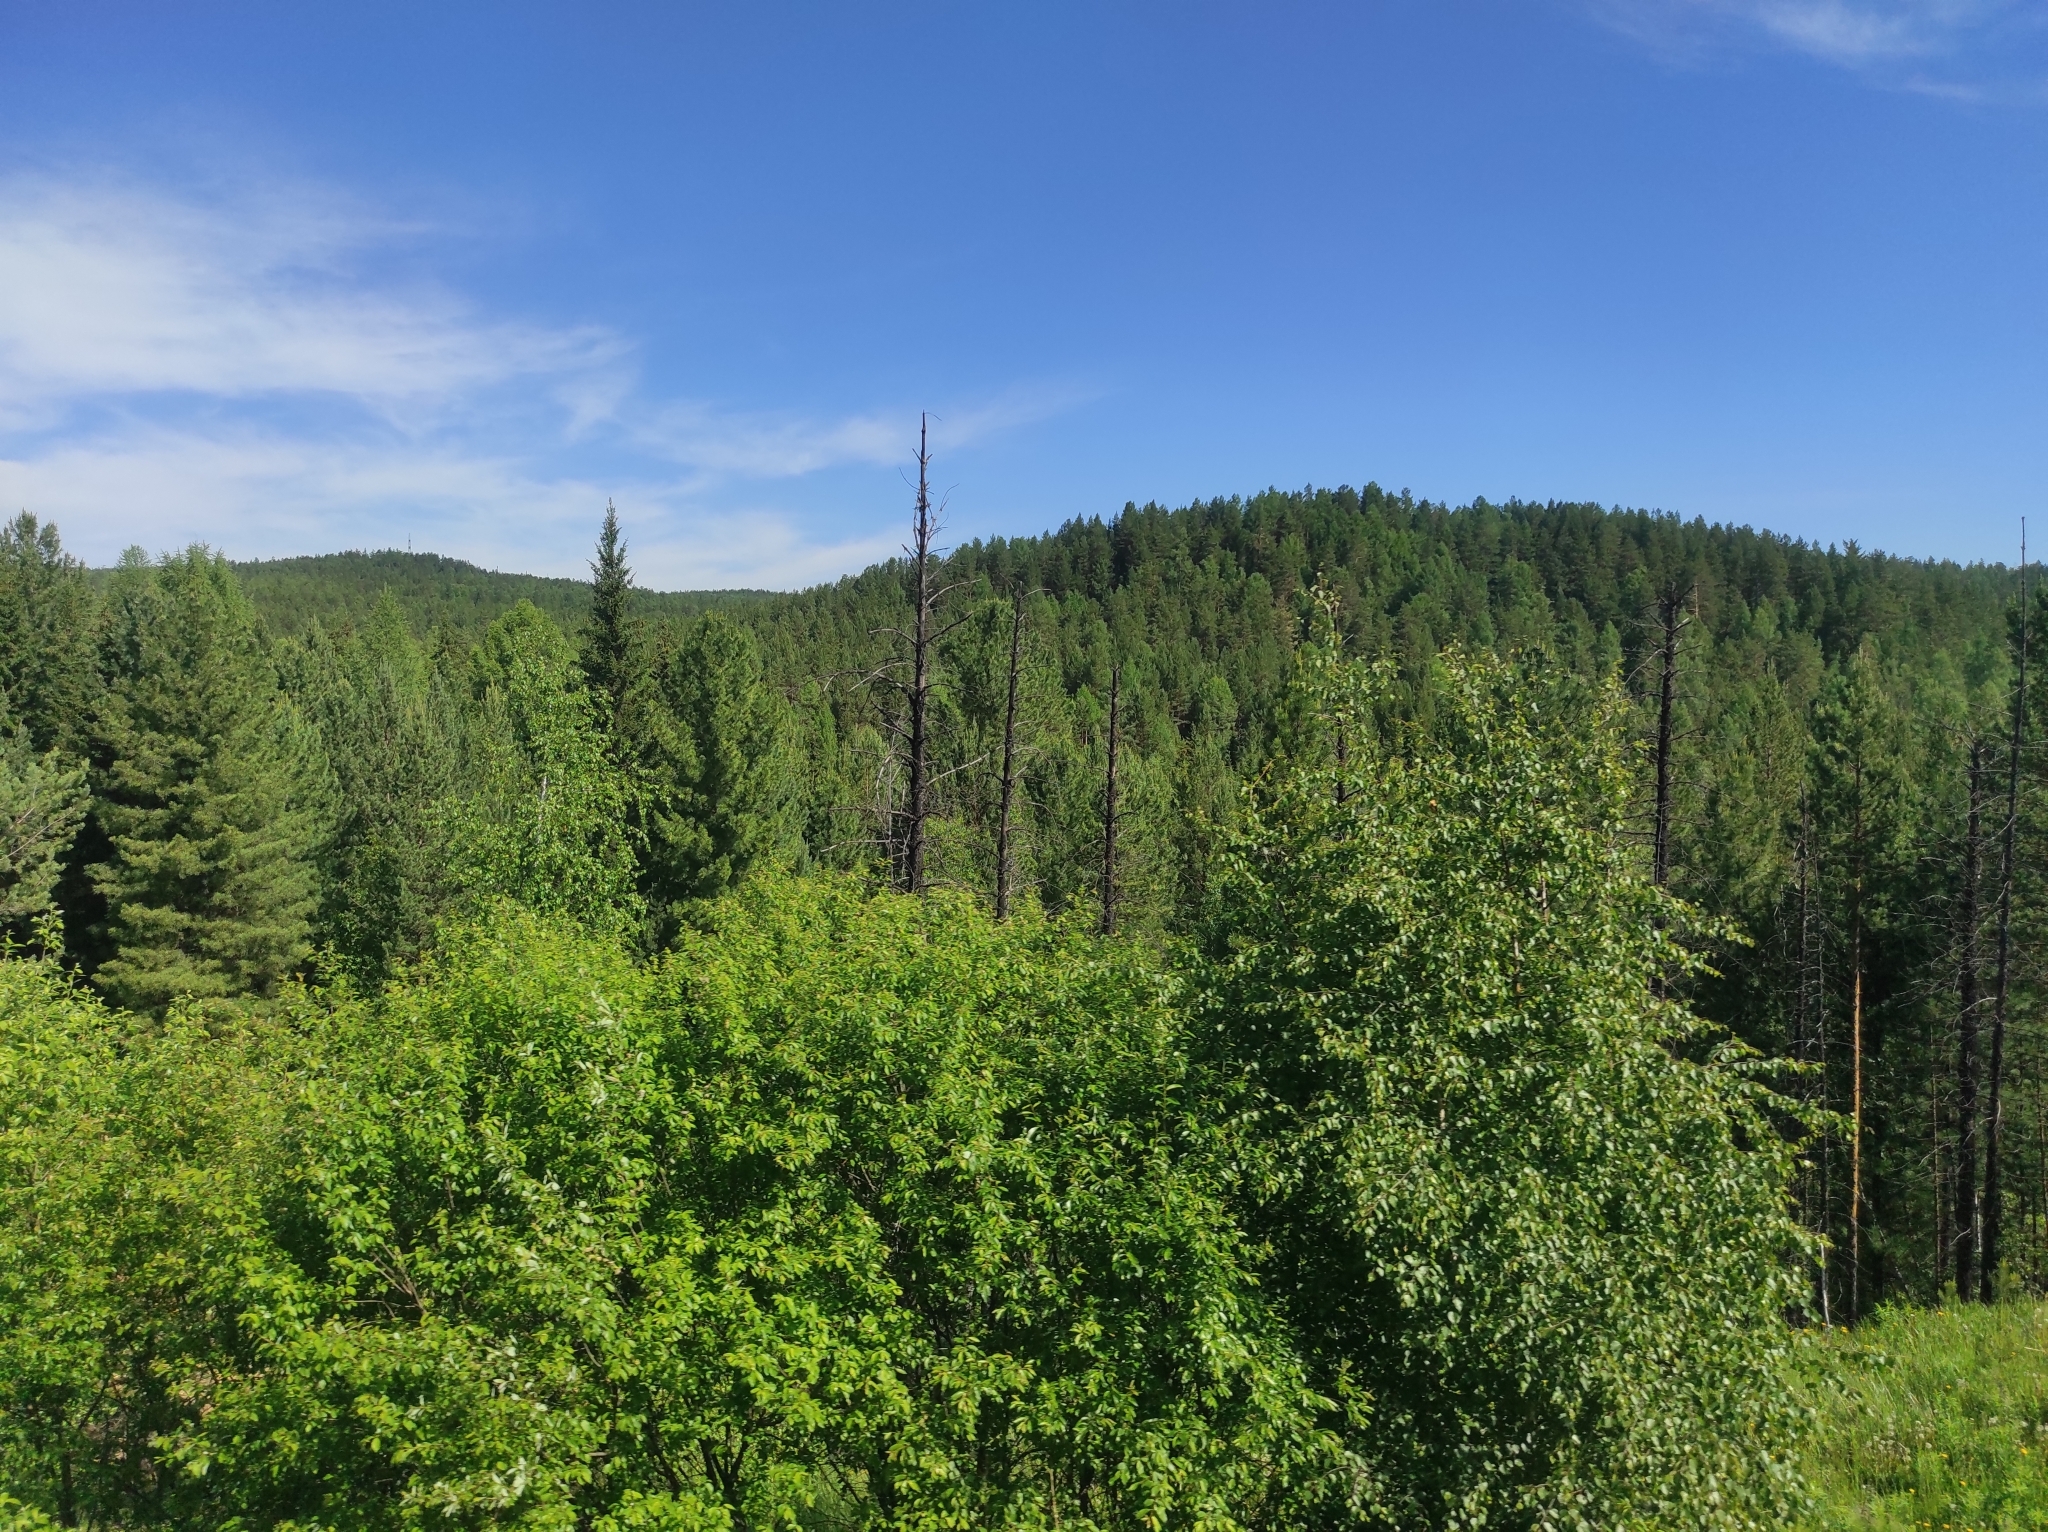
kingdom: Plantae
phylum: Tracheophyta
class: Pinopsida
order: Pinales
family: Pinaceae
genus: Picea
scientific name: Picea obovata
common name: Siberian spruce
